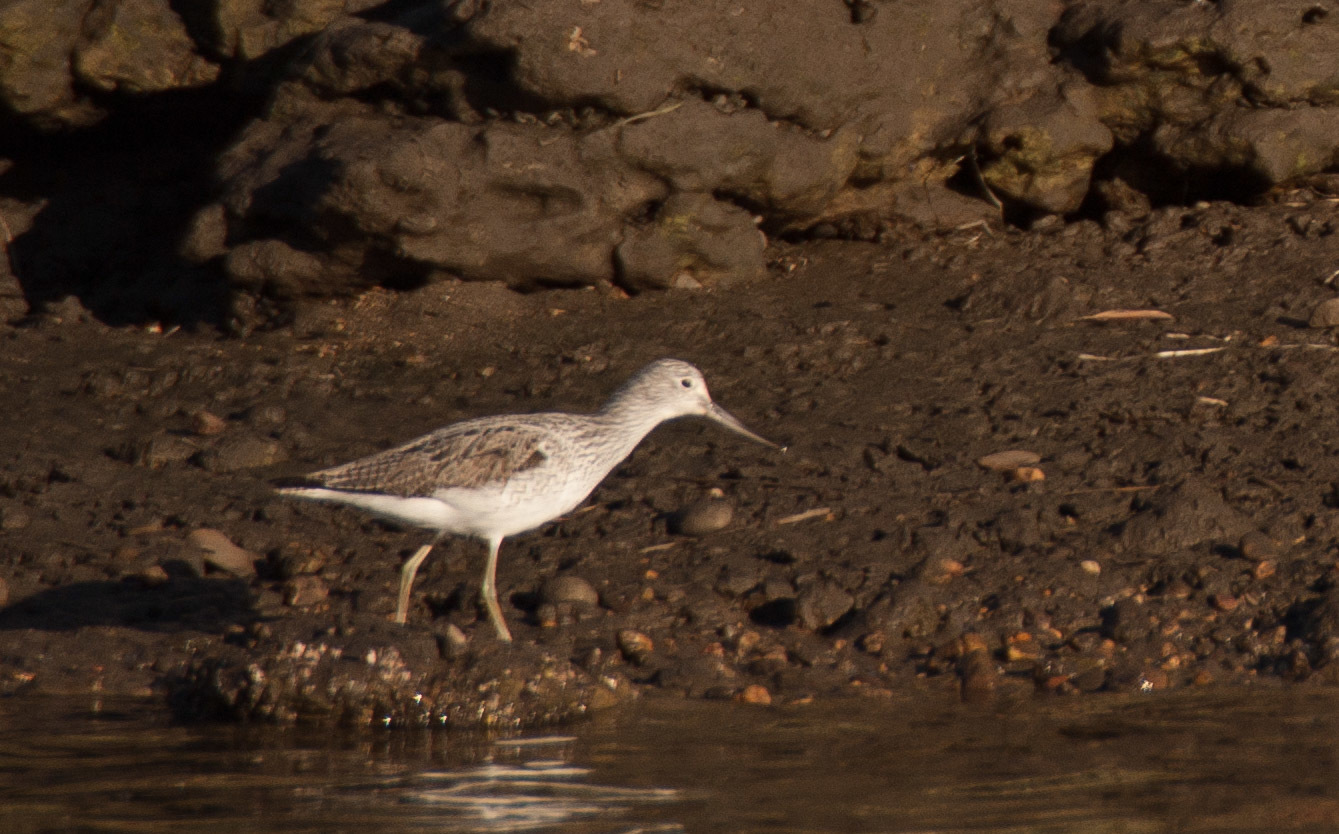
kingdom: Animalia
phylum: Chordata
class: Aves
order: Charadriiformes
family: Scolopacidae
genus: Tringa
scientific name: Tringa nebularia
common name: Common greenshank
